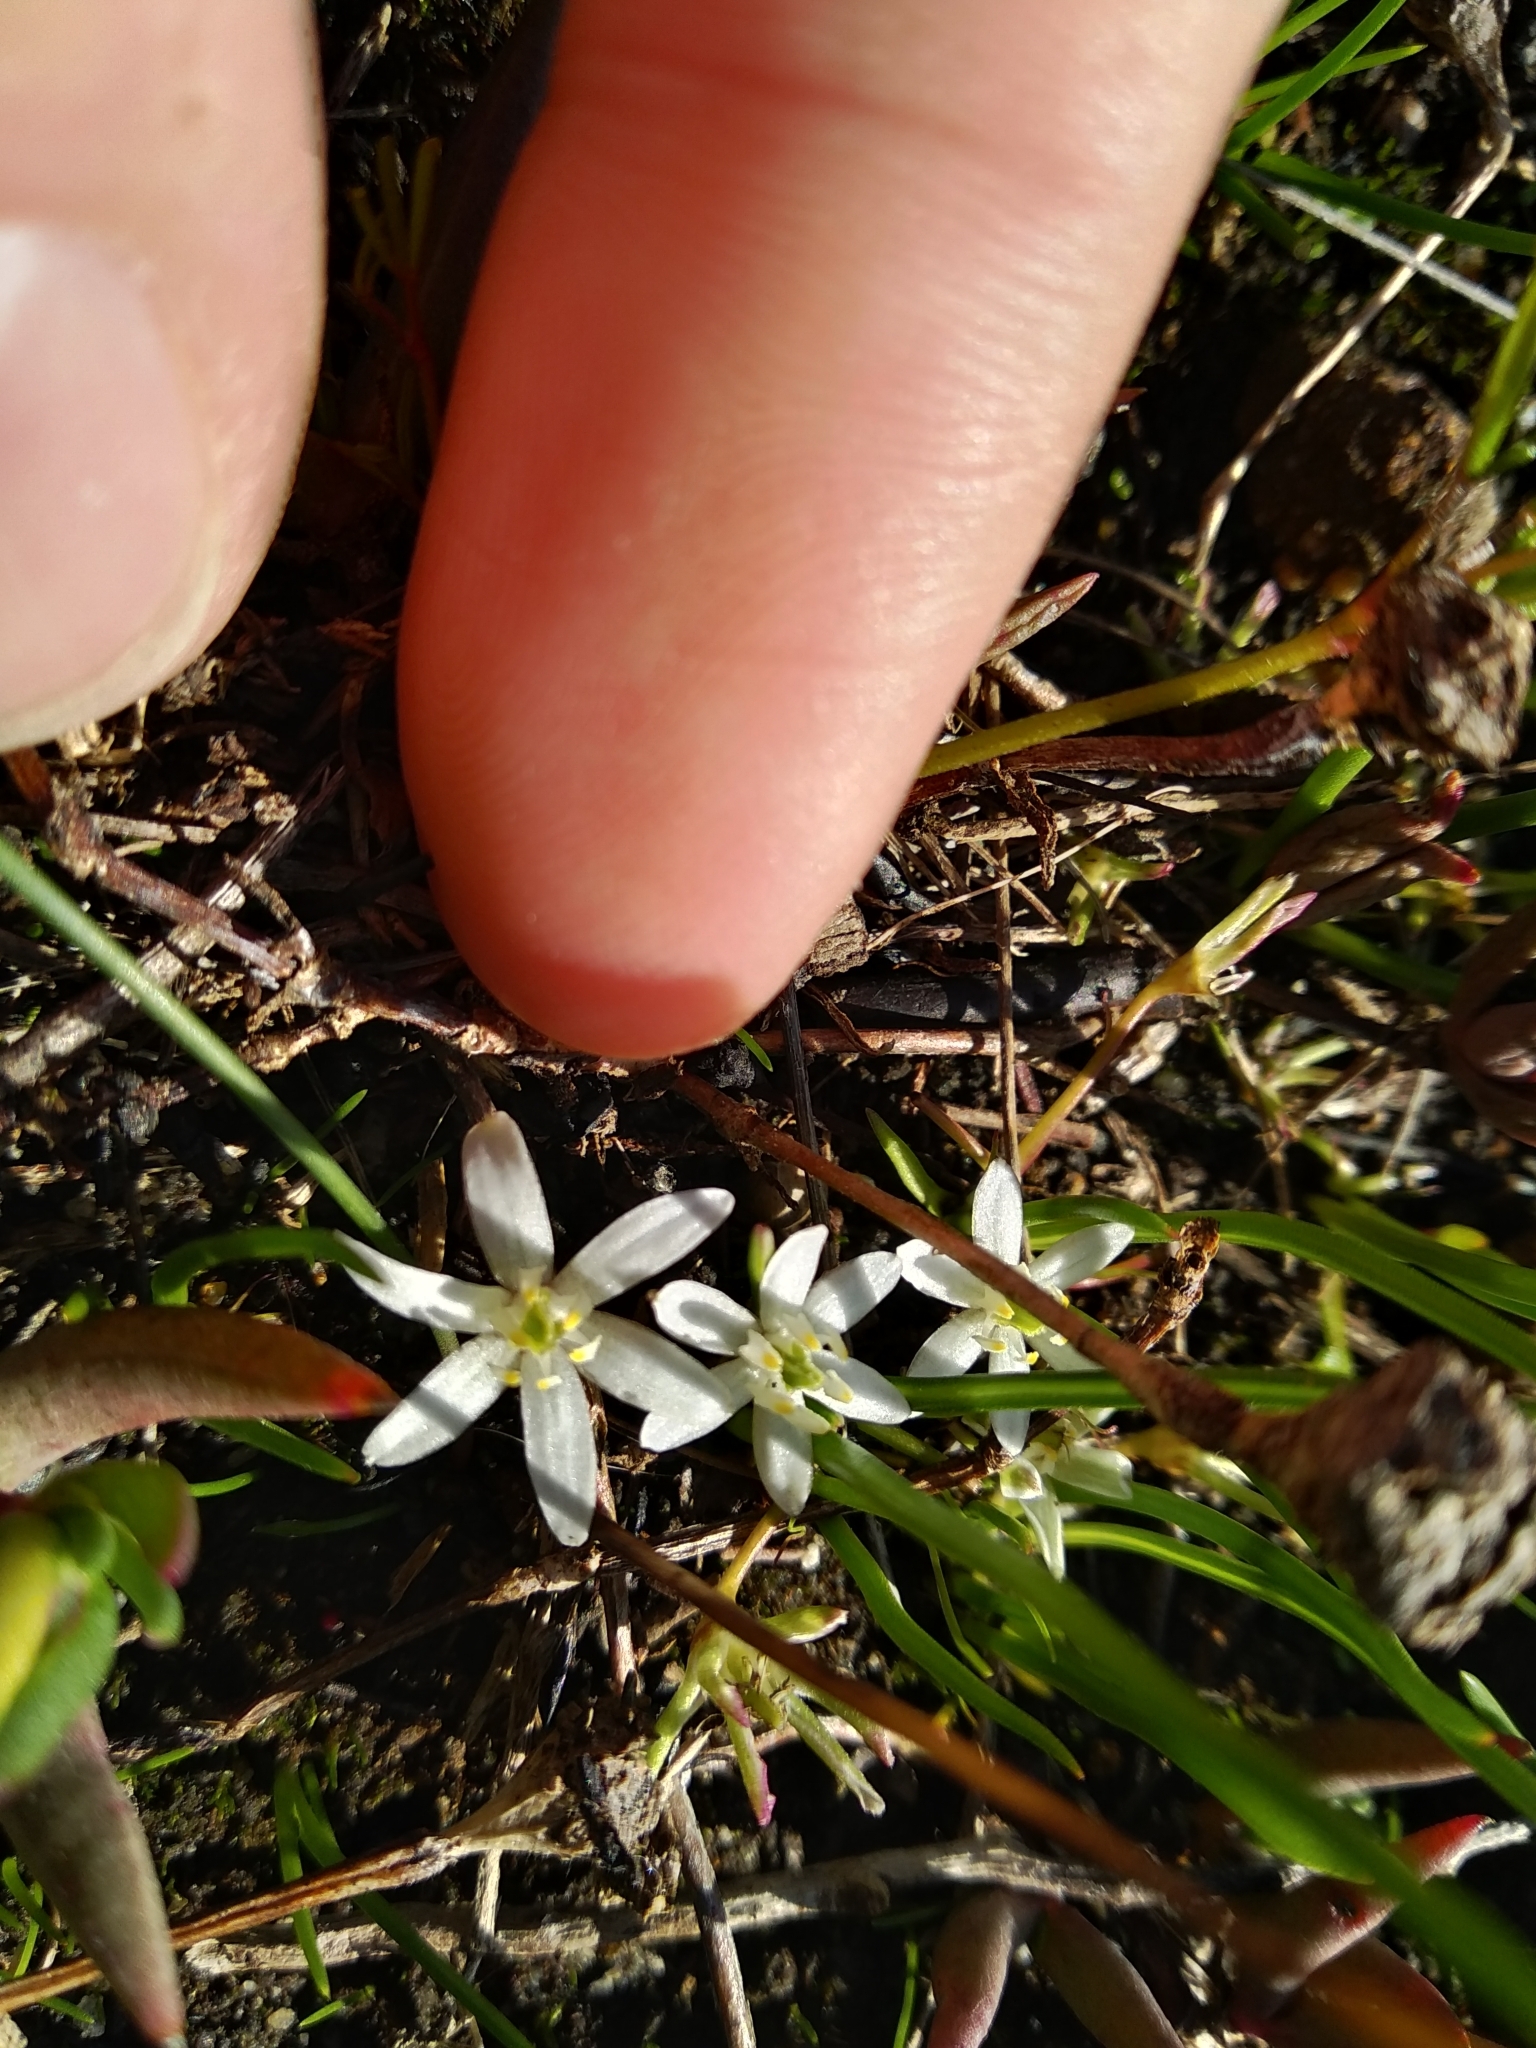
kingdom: Plantae
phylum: Tracheophyta
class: Liliopsida
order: Asparagales
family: Hypoxidaceae
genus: Pauridia
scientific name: Pauridia pygmaea
